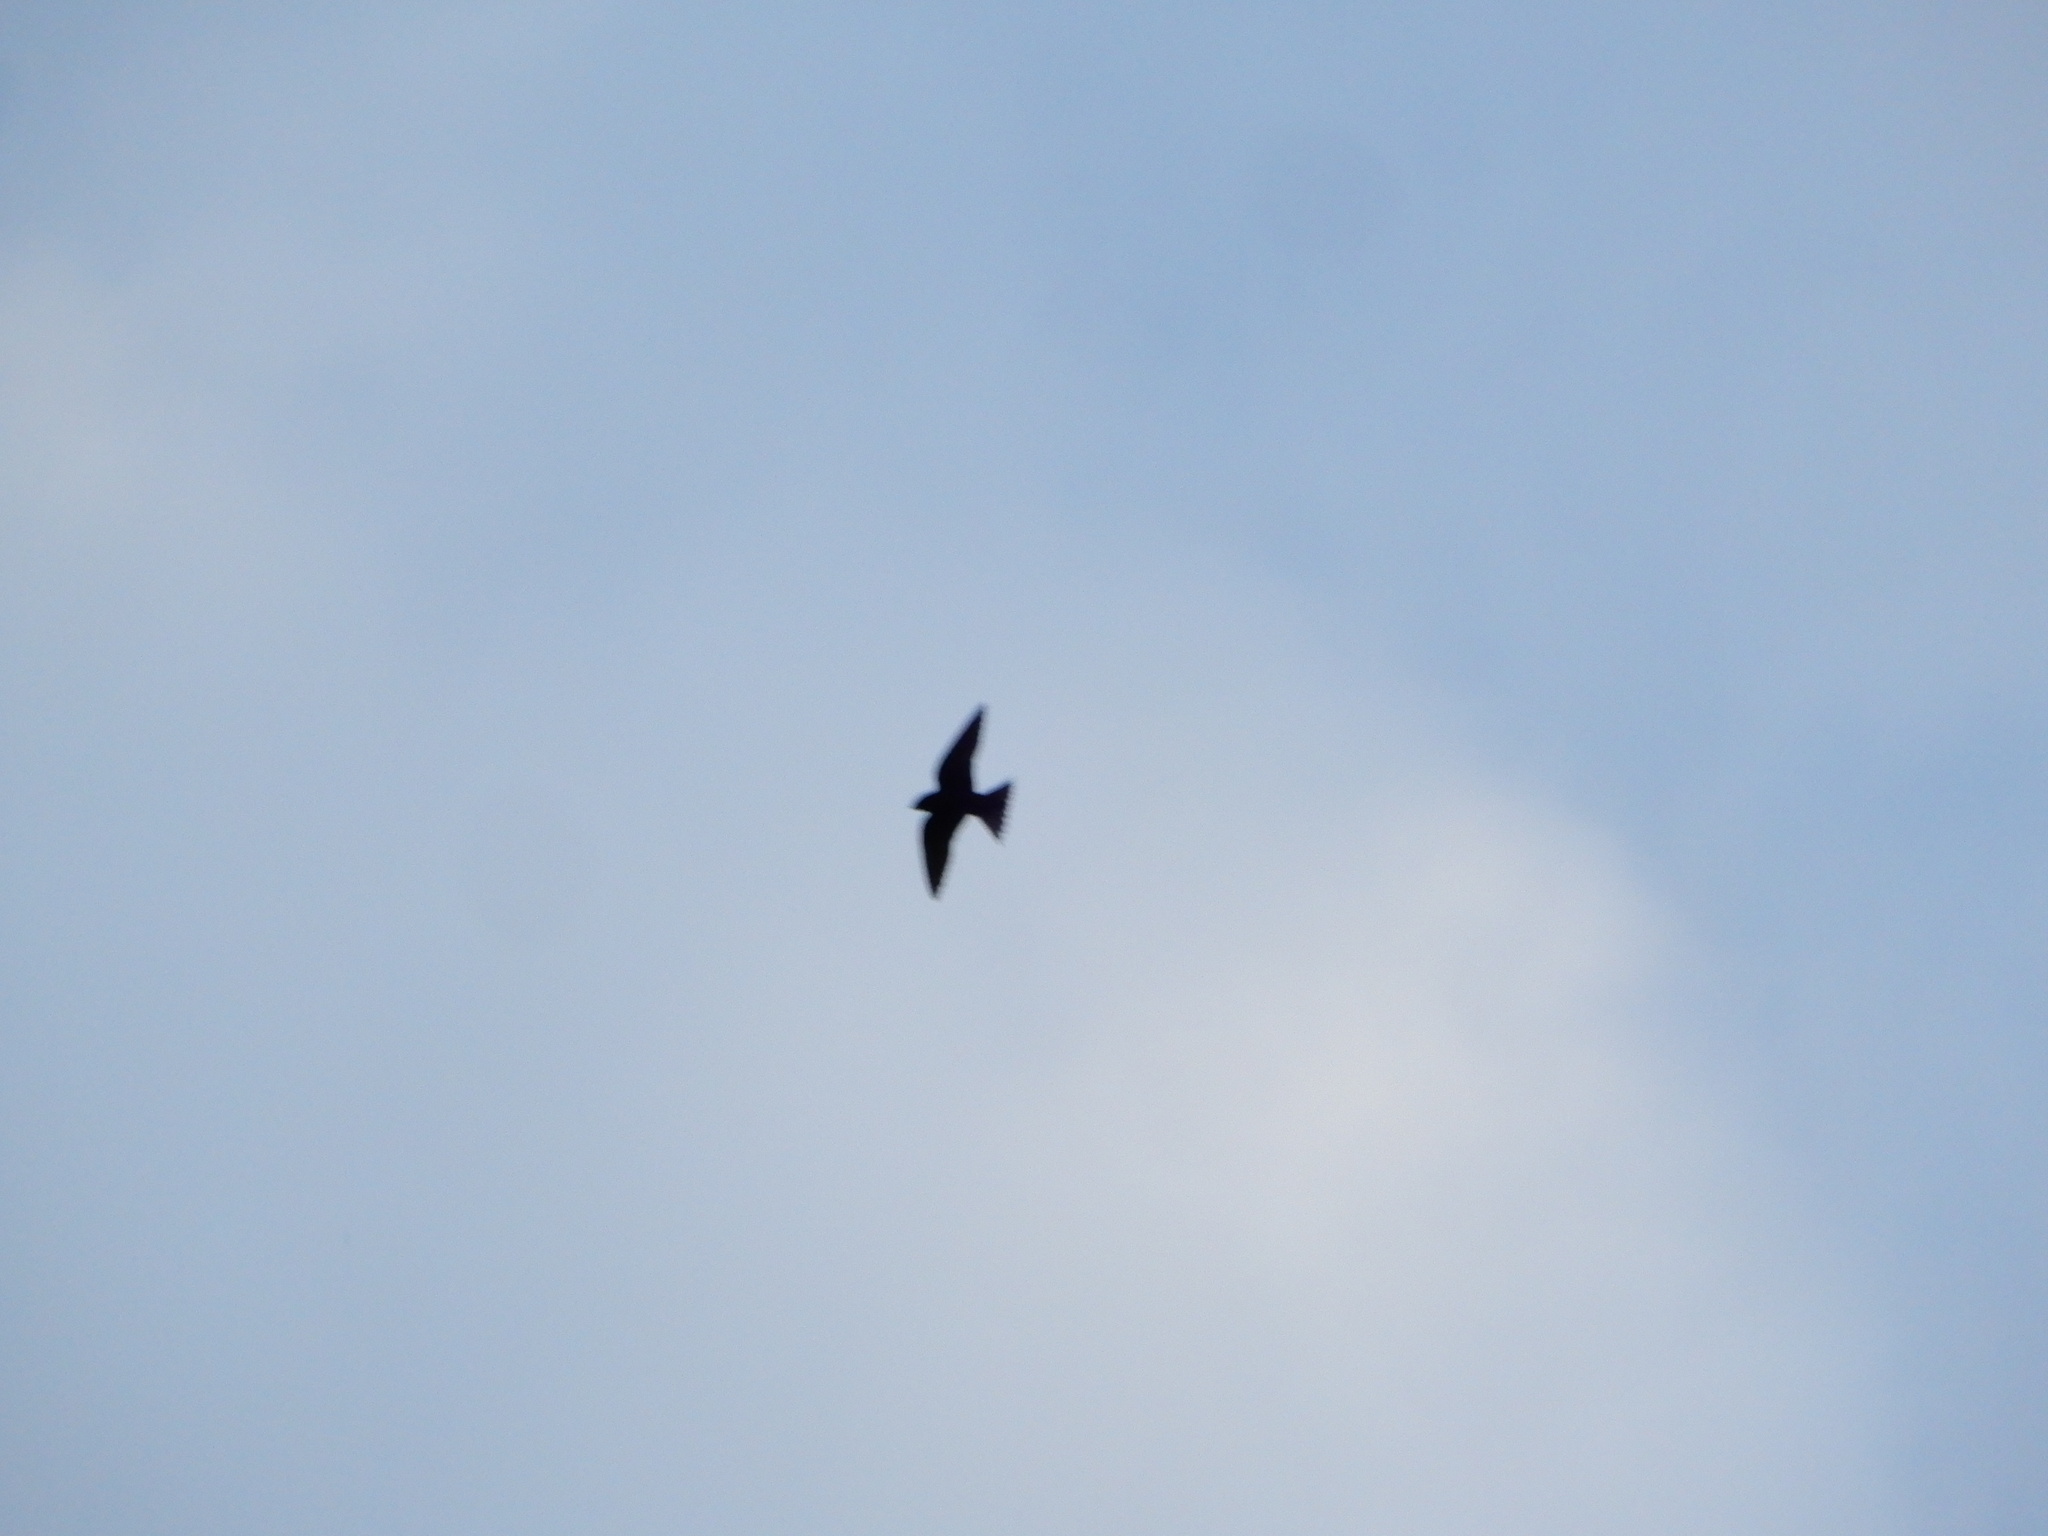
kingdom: Animalia
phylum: Chordata
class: Aves
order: Passeriformes
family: Hirundinidae
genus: Progne
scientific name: Progne subis
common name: Purple martin
